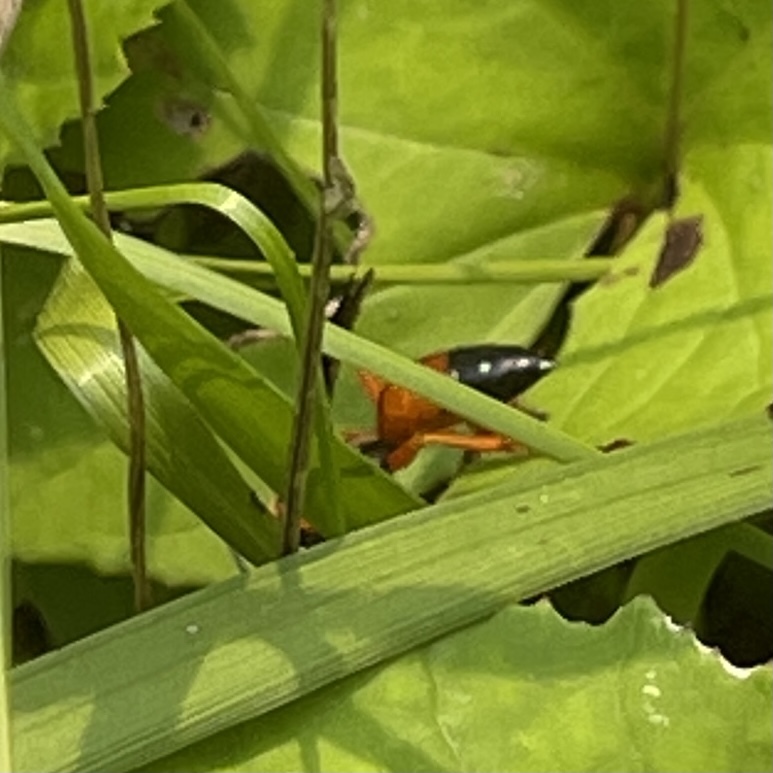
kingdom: Animalia
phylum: Arthropoda
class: Insecta
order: Hymenoptera
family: Sphecidae
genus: Sphex
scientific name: Sphex ichneumoneus
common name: Great golden digger wasp
